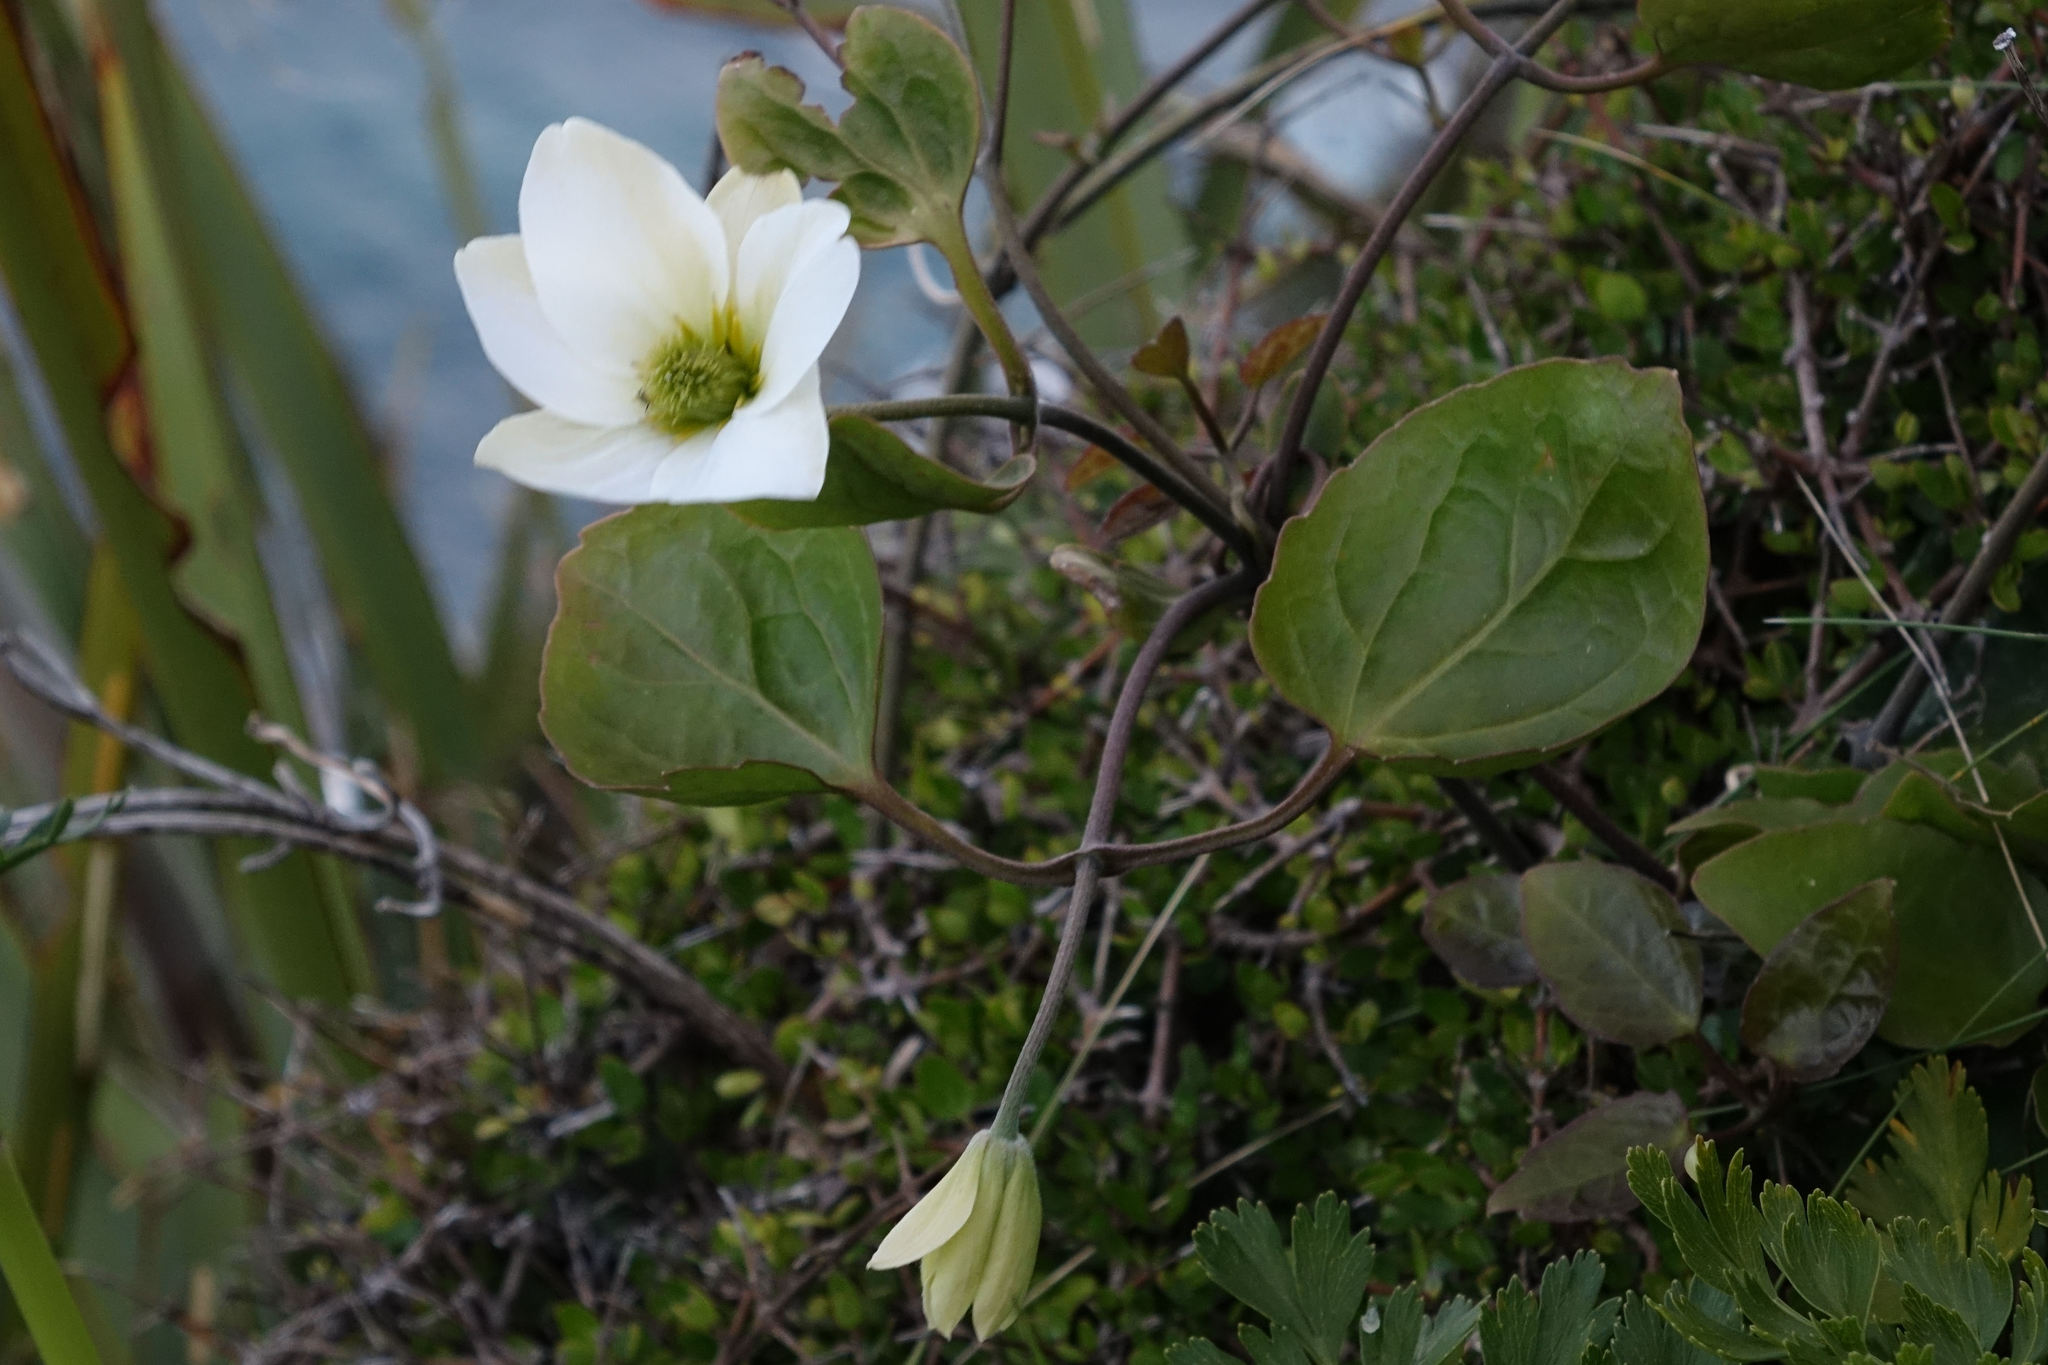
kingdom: Plantae
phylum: Tracheophyta
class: Magnoliopsida
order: Ranunculales
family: Ranunculaceae
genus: Clematis
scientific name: Clematis paniculata
